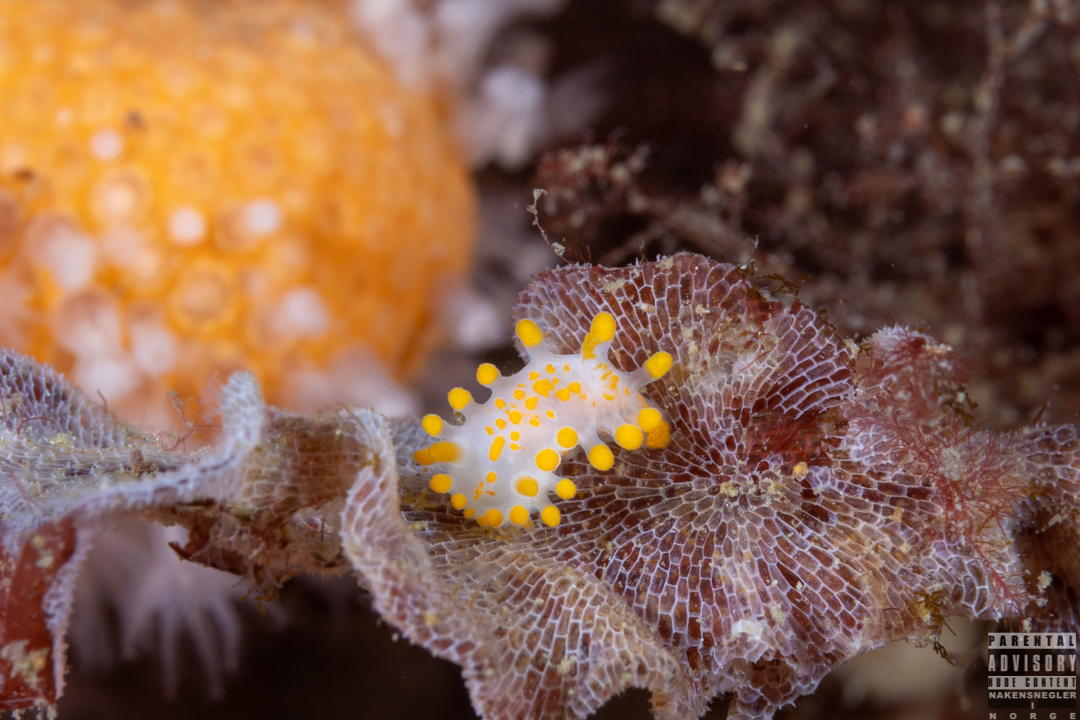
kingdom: Animalia
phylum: Mollusca
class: Gastropoda
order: Nudibranchia
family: Polyceridae
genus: Limacia
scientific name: Limacia clavigera
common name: Orange-clubbed sea slug
